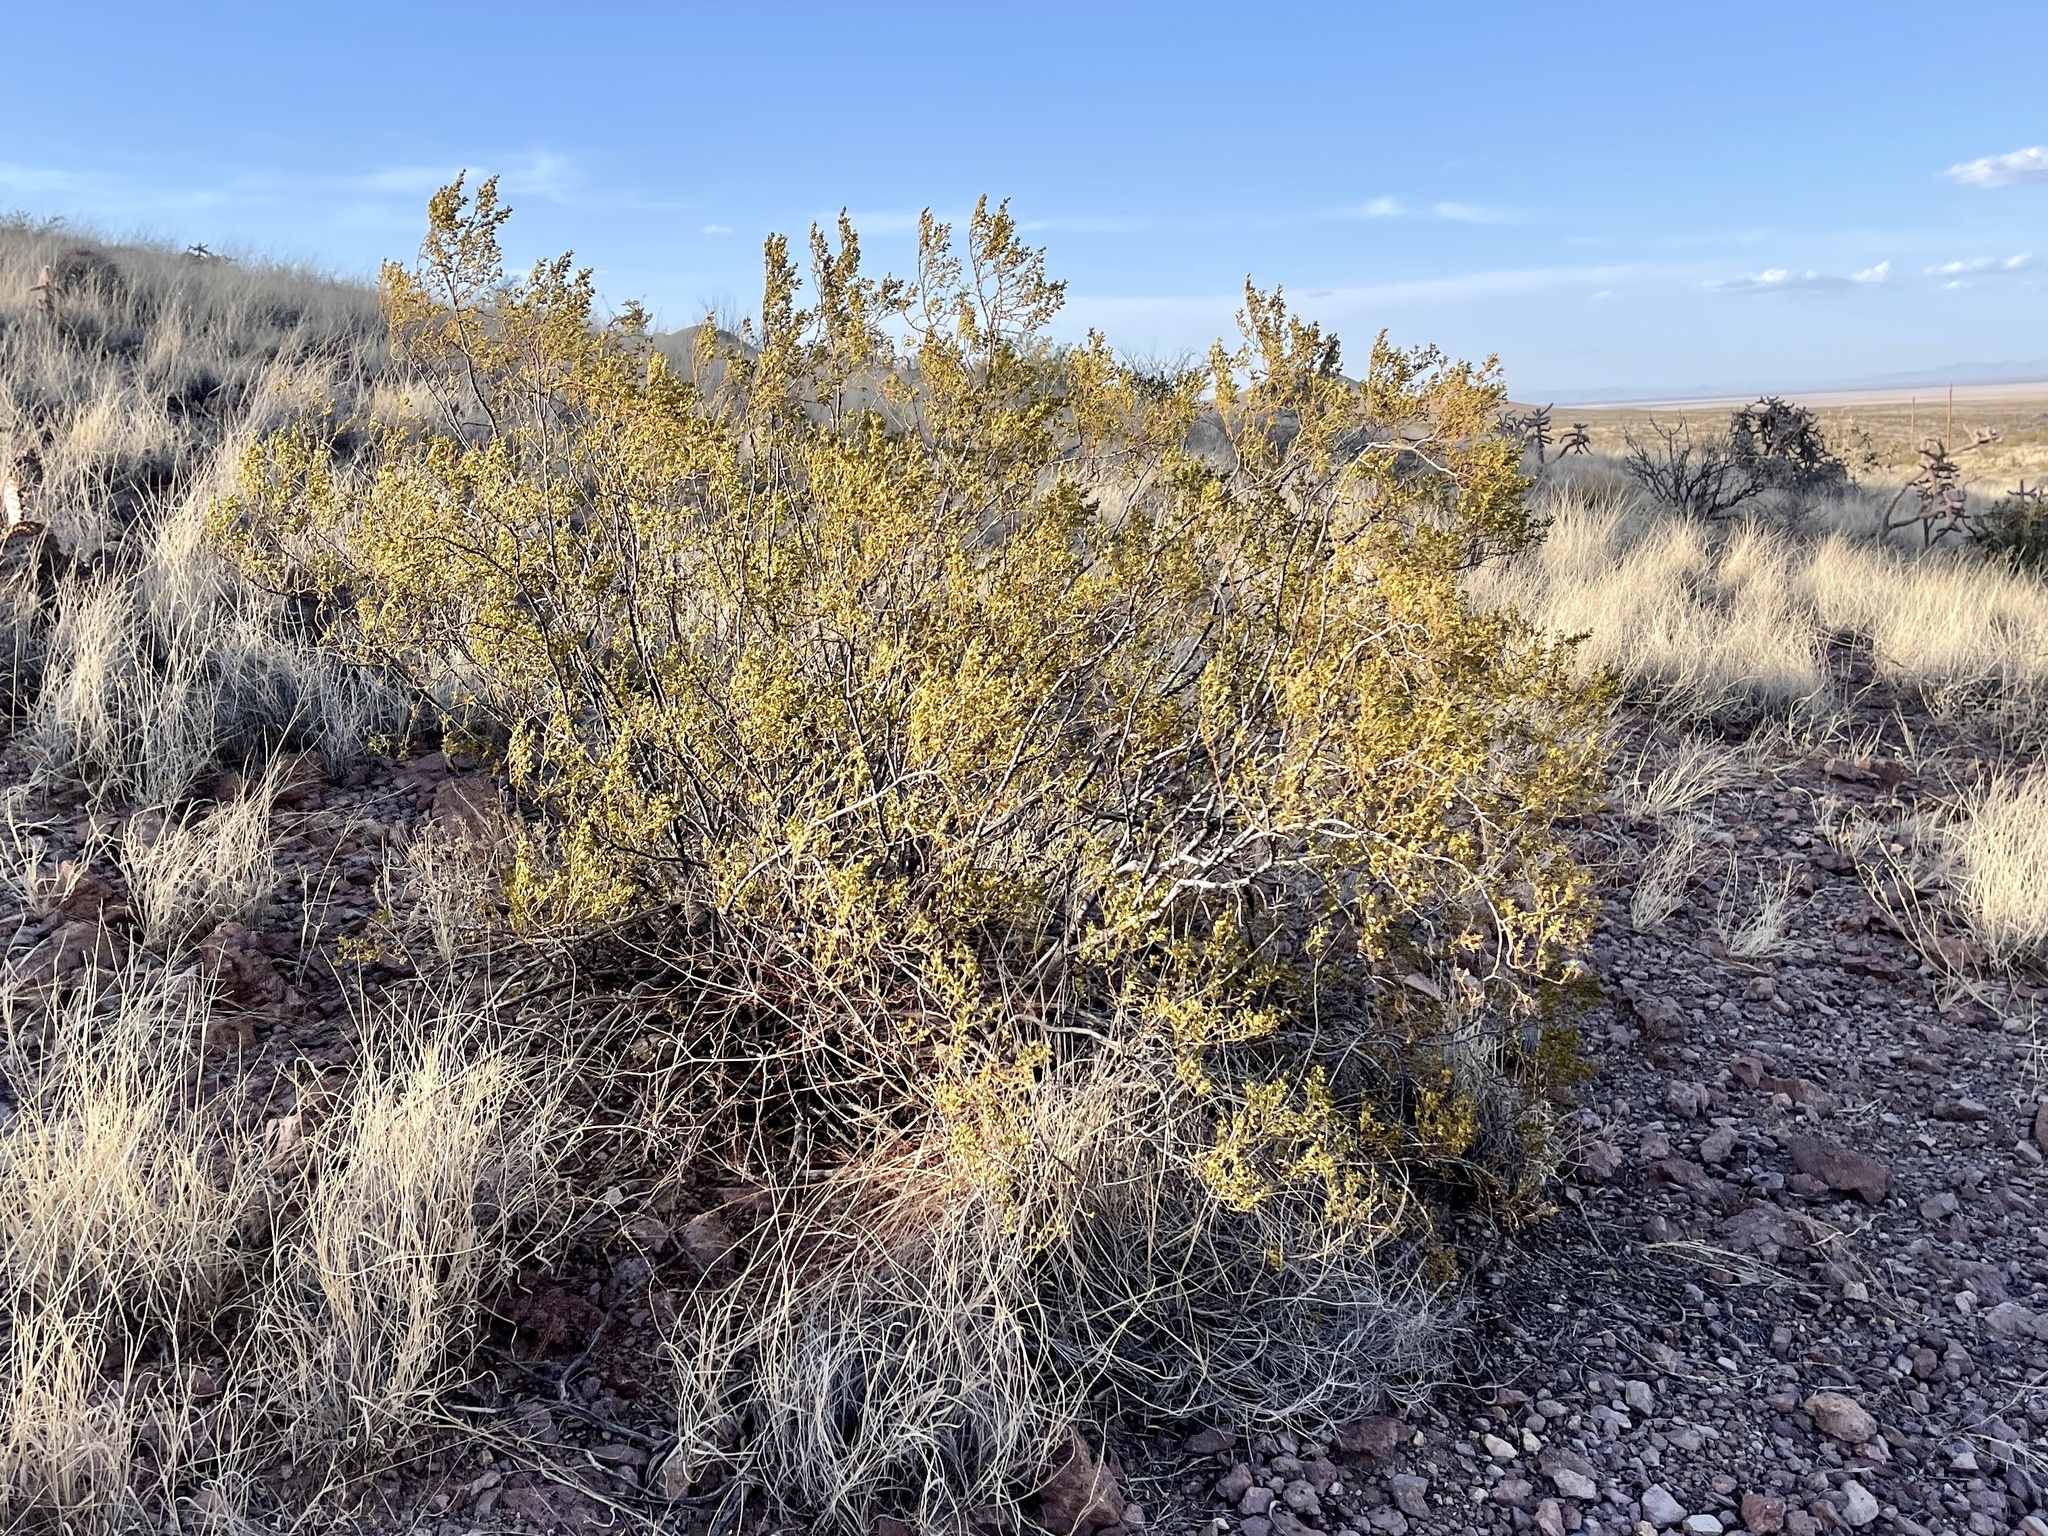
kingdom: Plantae
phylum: Tracheophyta
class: Magnoliopsida
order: Zygophyllales
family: Zygophyllaceae
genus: Larrea
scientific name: Larrea tridentata
